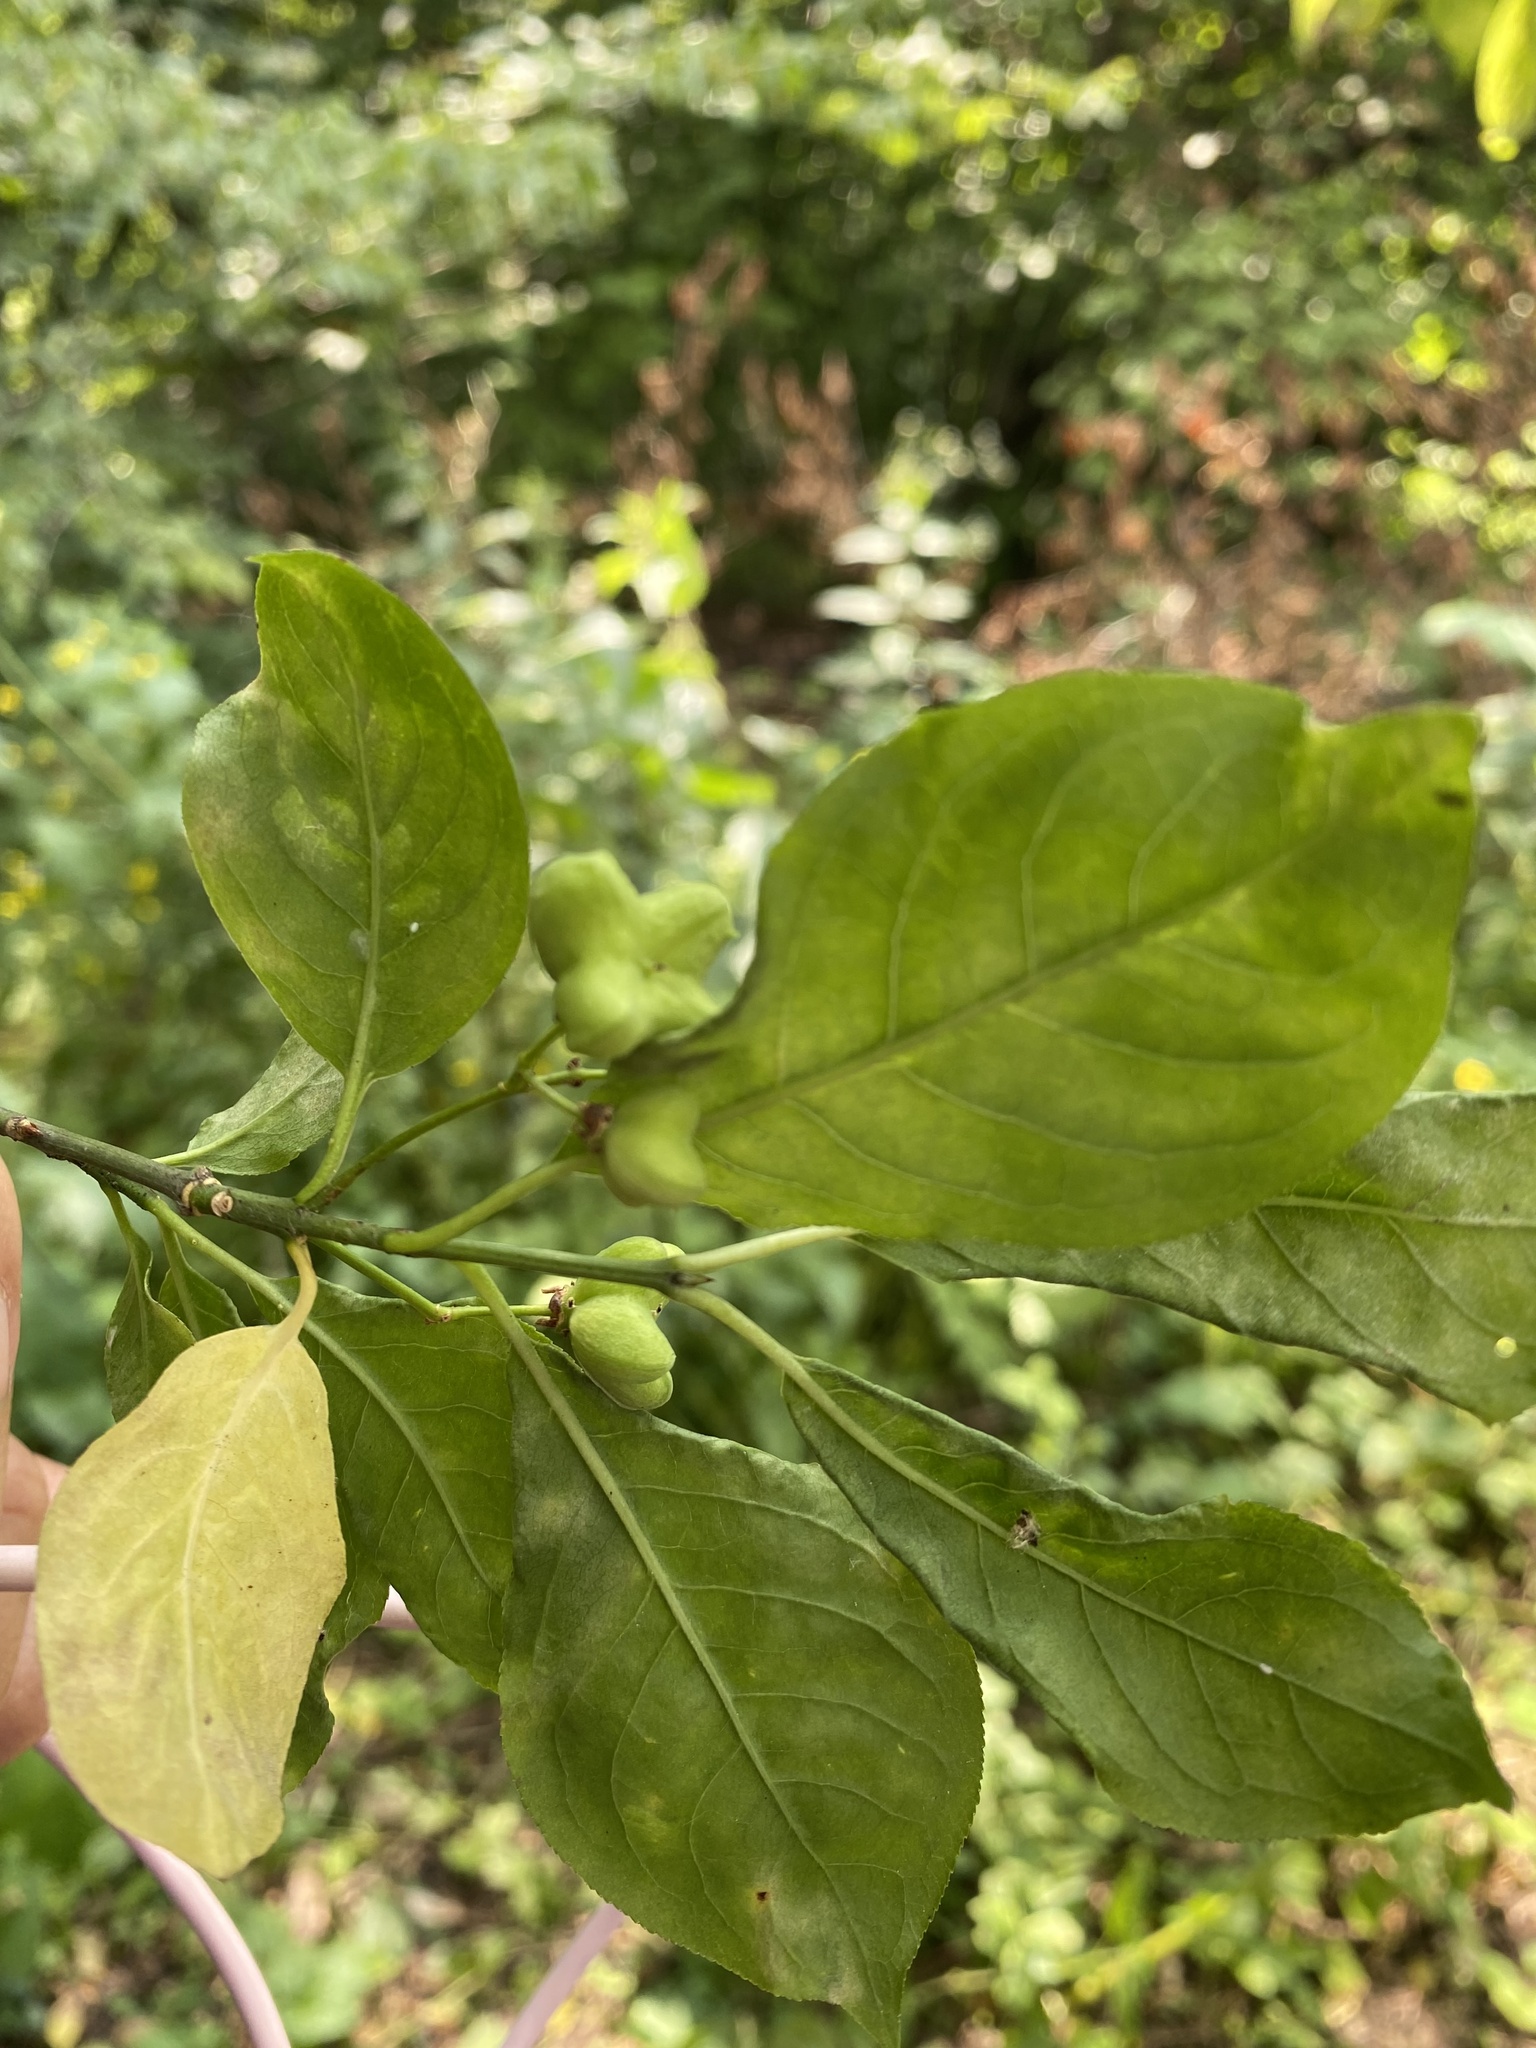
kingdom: Plantae
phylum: Tracheophyta
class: Magnoliopsida
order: Celastrales
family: Celastraceae
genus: Euonymus
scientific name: Euonymus europaeus
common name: Spindle
